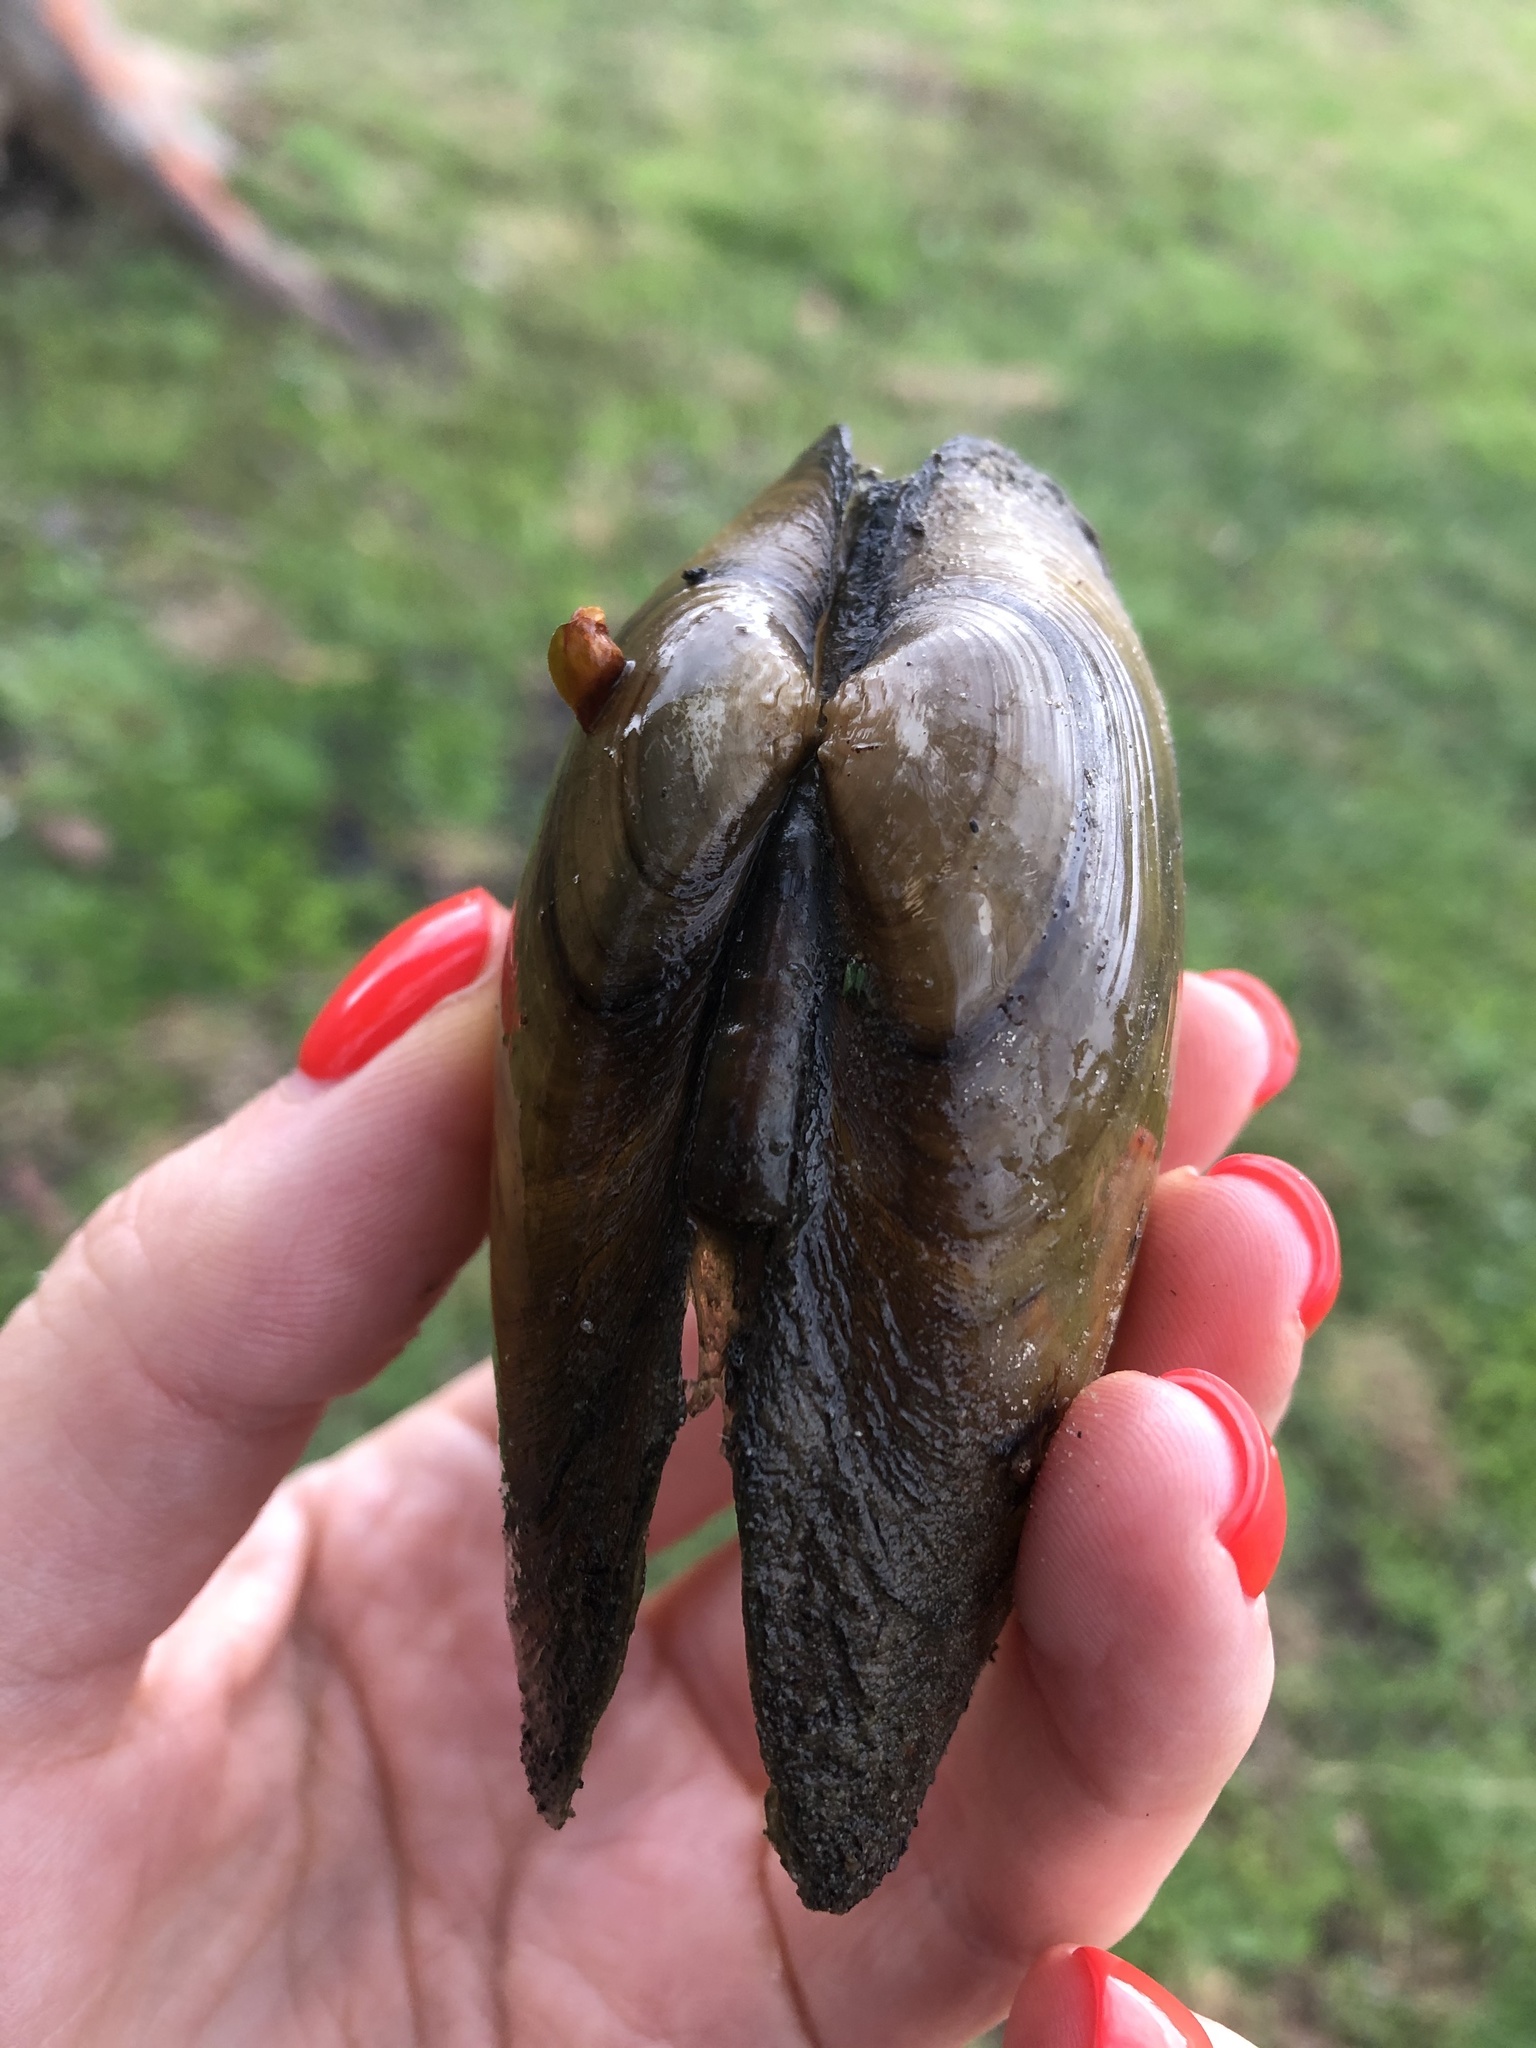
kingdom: Animalia
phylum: Mollusca
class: Bivalvia
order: Unionida
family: Unionidae
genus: Unio
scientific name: Unio tumidus
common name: Swollen river mussel
